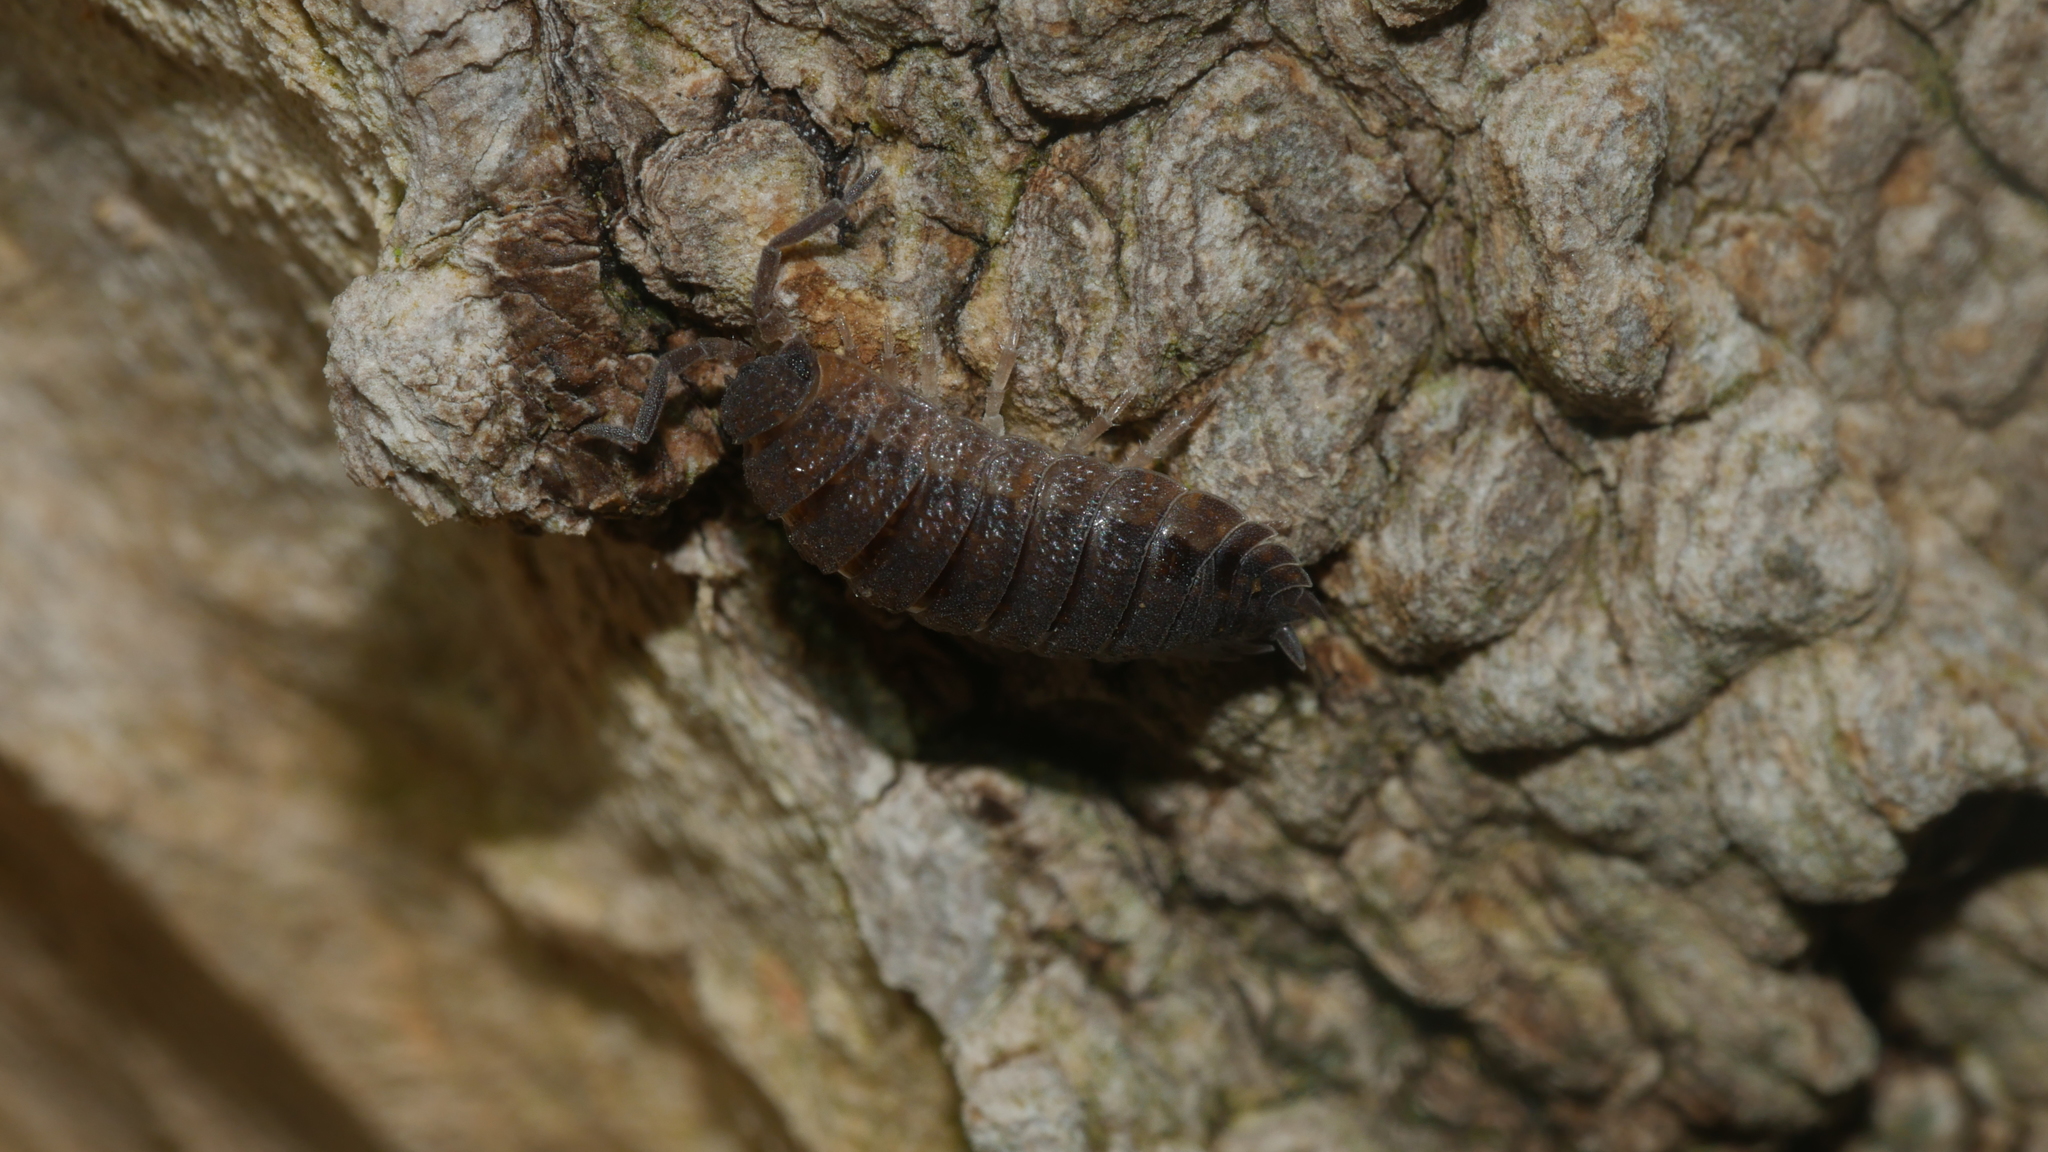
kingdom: Animalia
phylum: Arthropoda
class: Malacostraca
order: Isopoda
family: Porcellionidae
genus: Porcellio
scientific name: Porcellio scaber
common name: Common rough woodlouse
